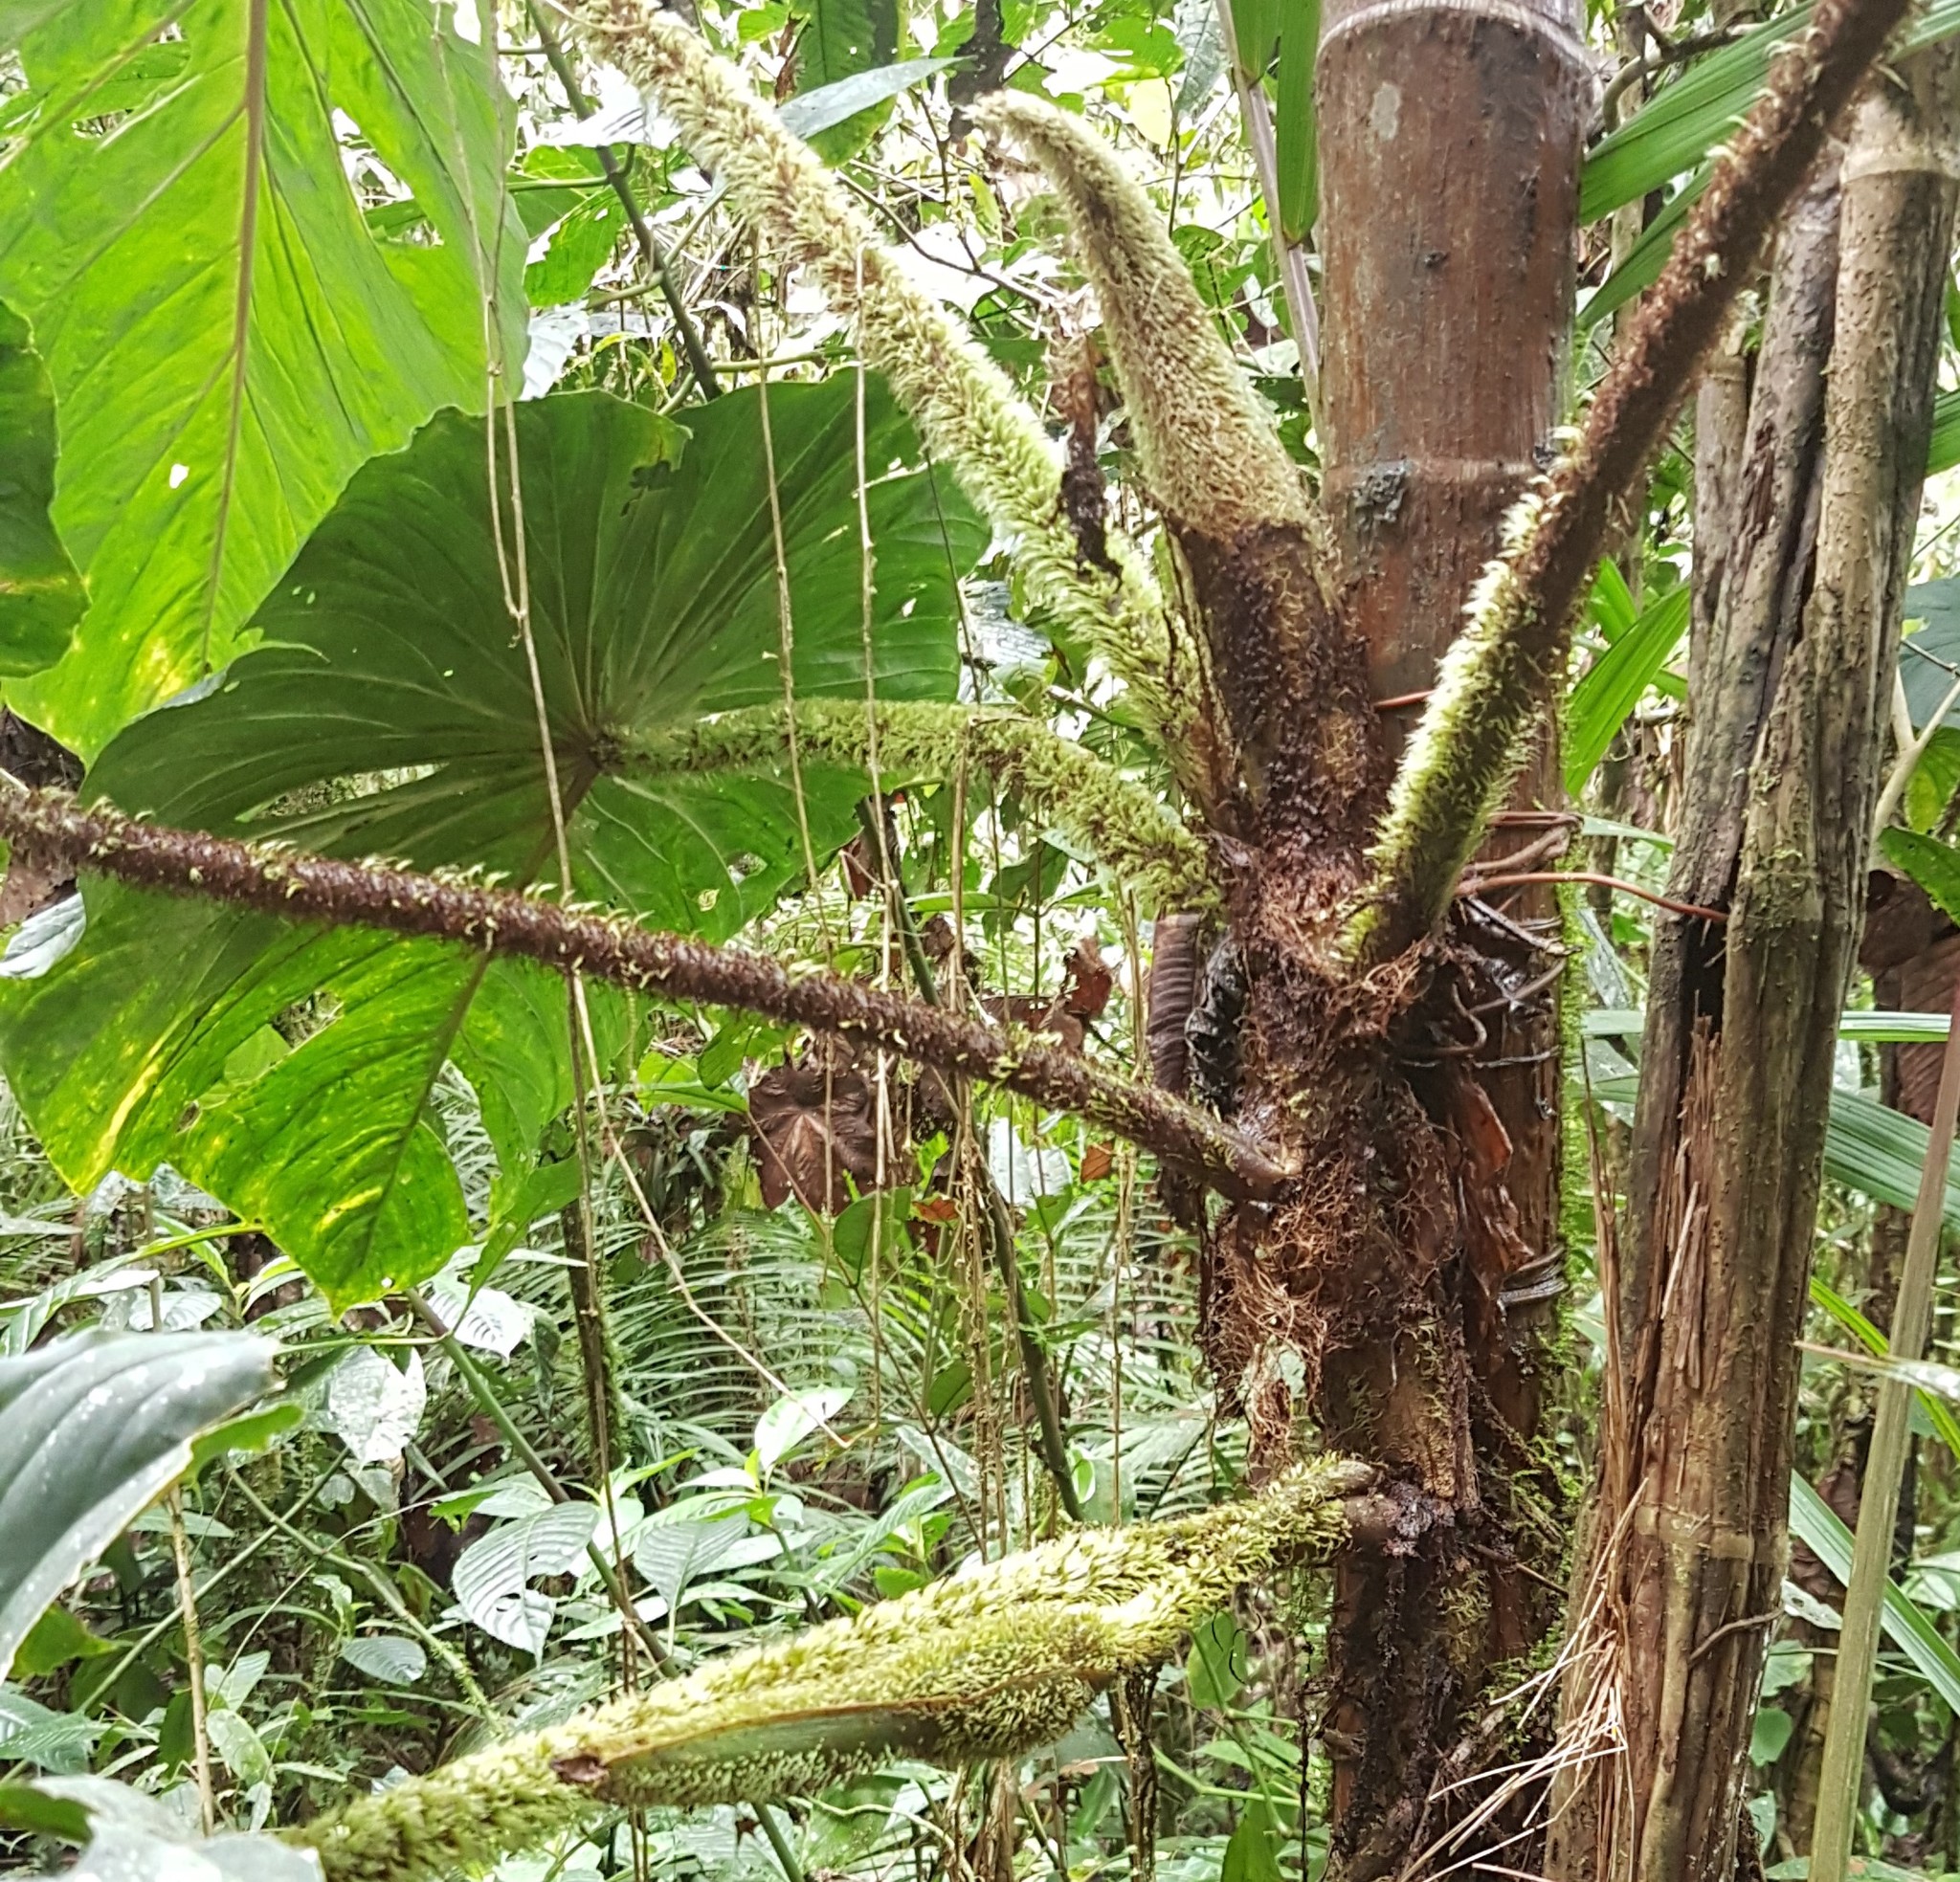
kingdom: Plantae
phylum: Tracheophyta
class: Liliopsida
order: Alismatales
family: Araceae
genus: Philodendron
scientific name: Philodendron fibrosum
